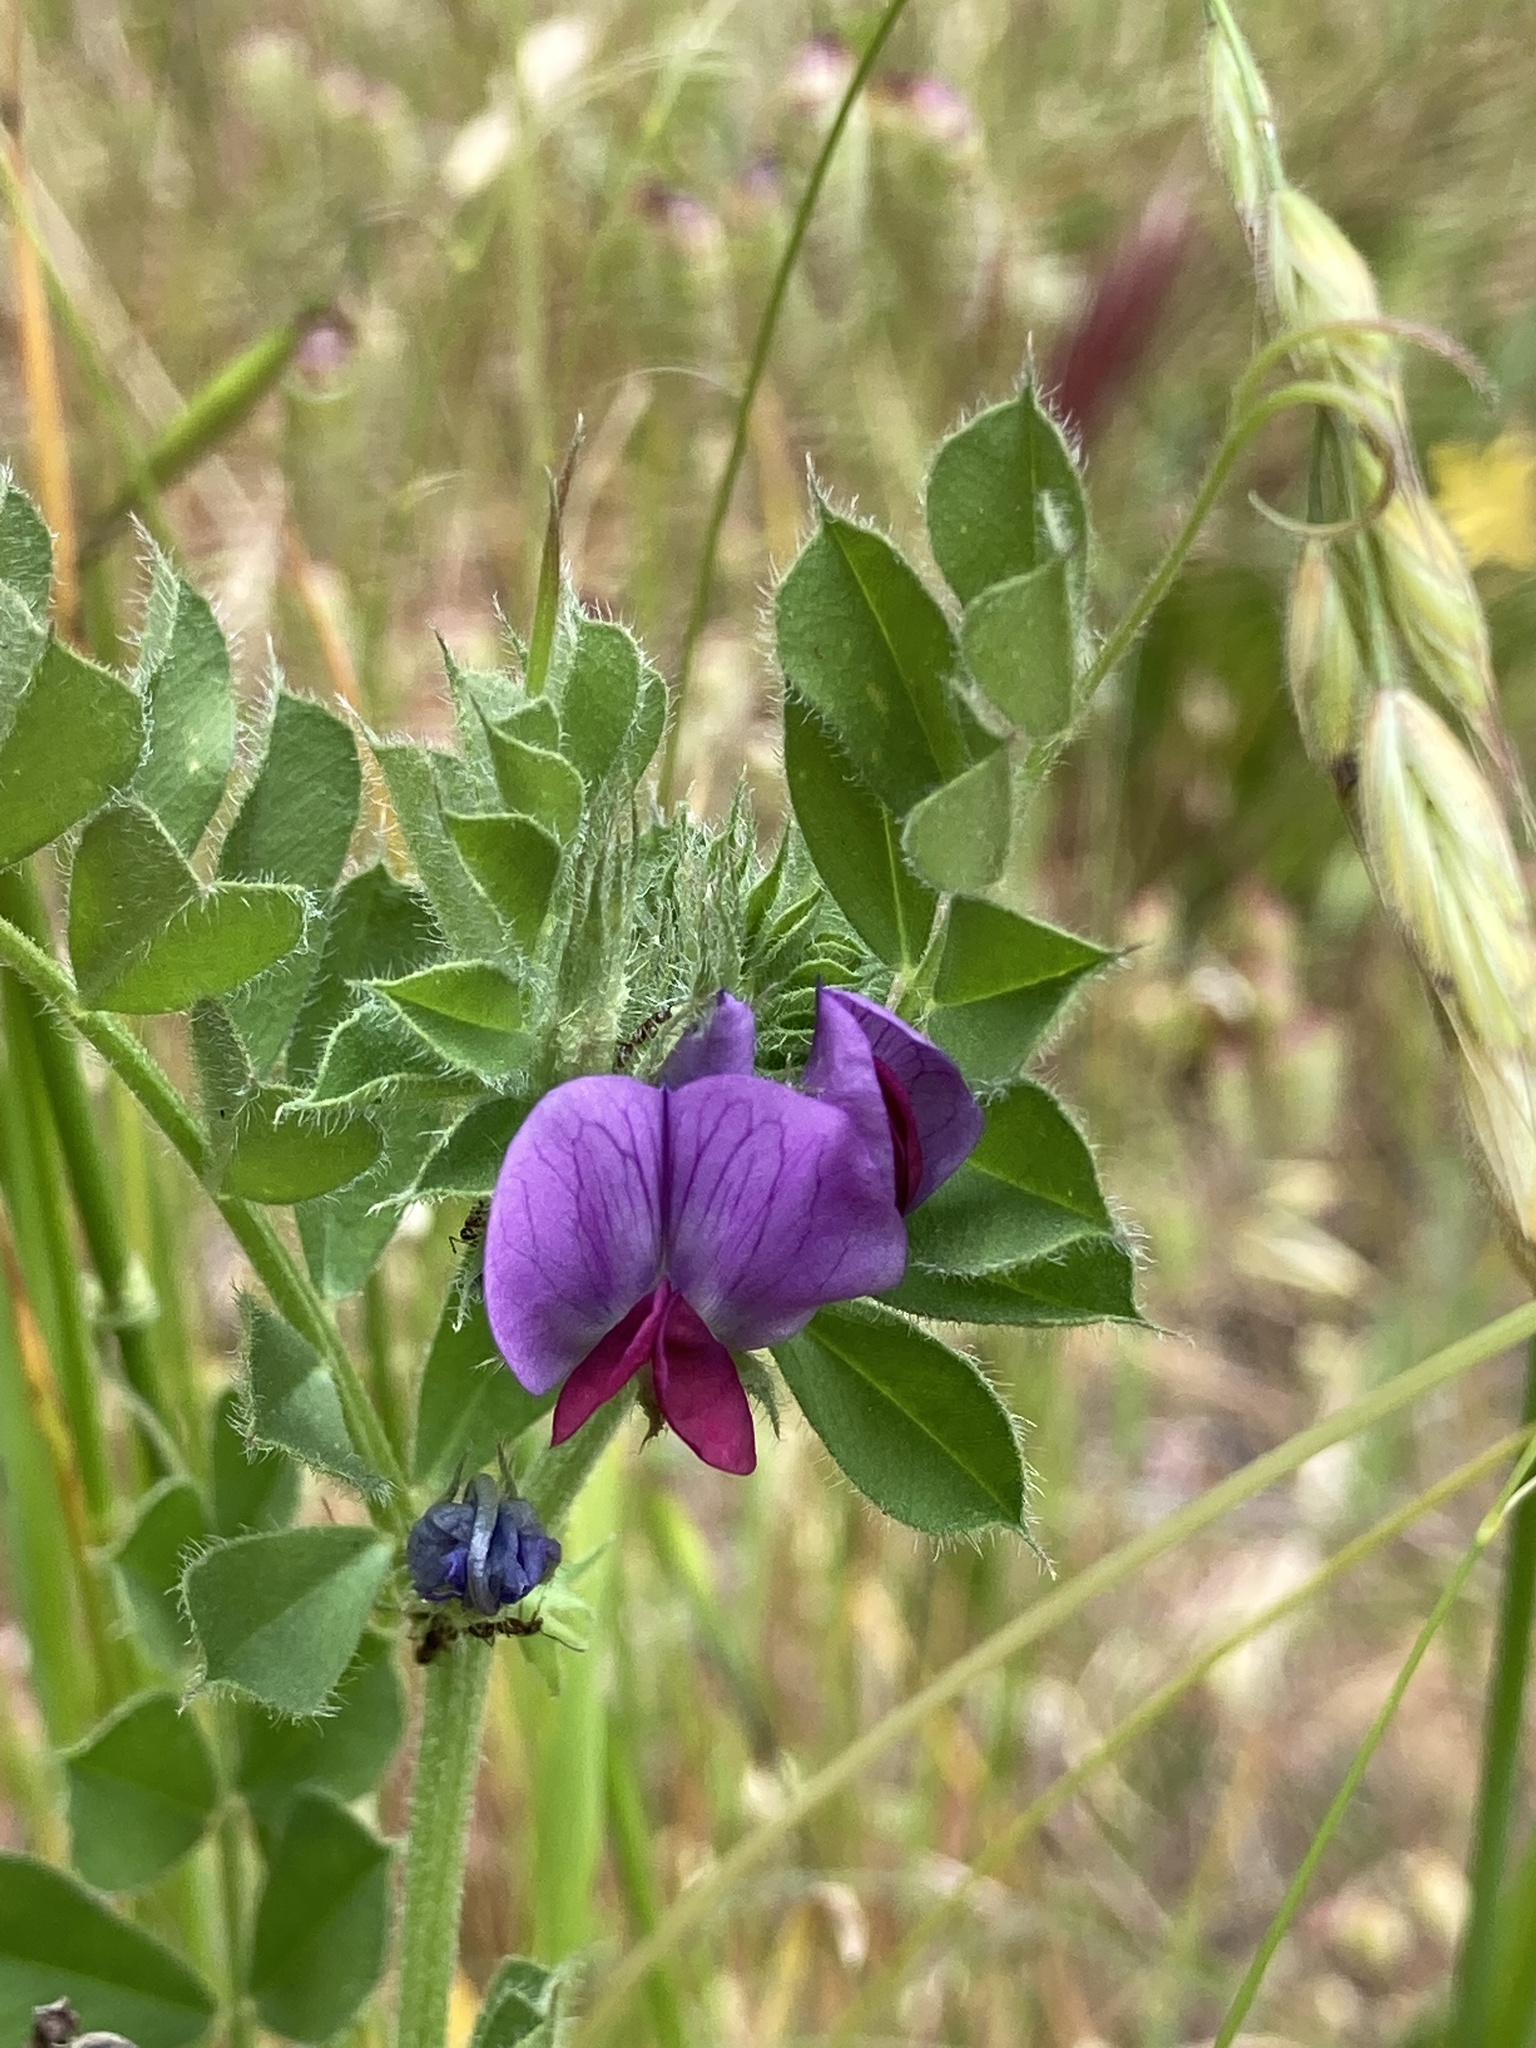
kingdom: Plantae
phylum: Tracheophyta
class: Magnoliopsida
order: Fabales
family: Fabaceae
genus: Vicia
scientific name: Vicia sativa
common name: Garden vetch
